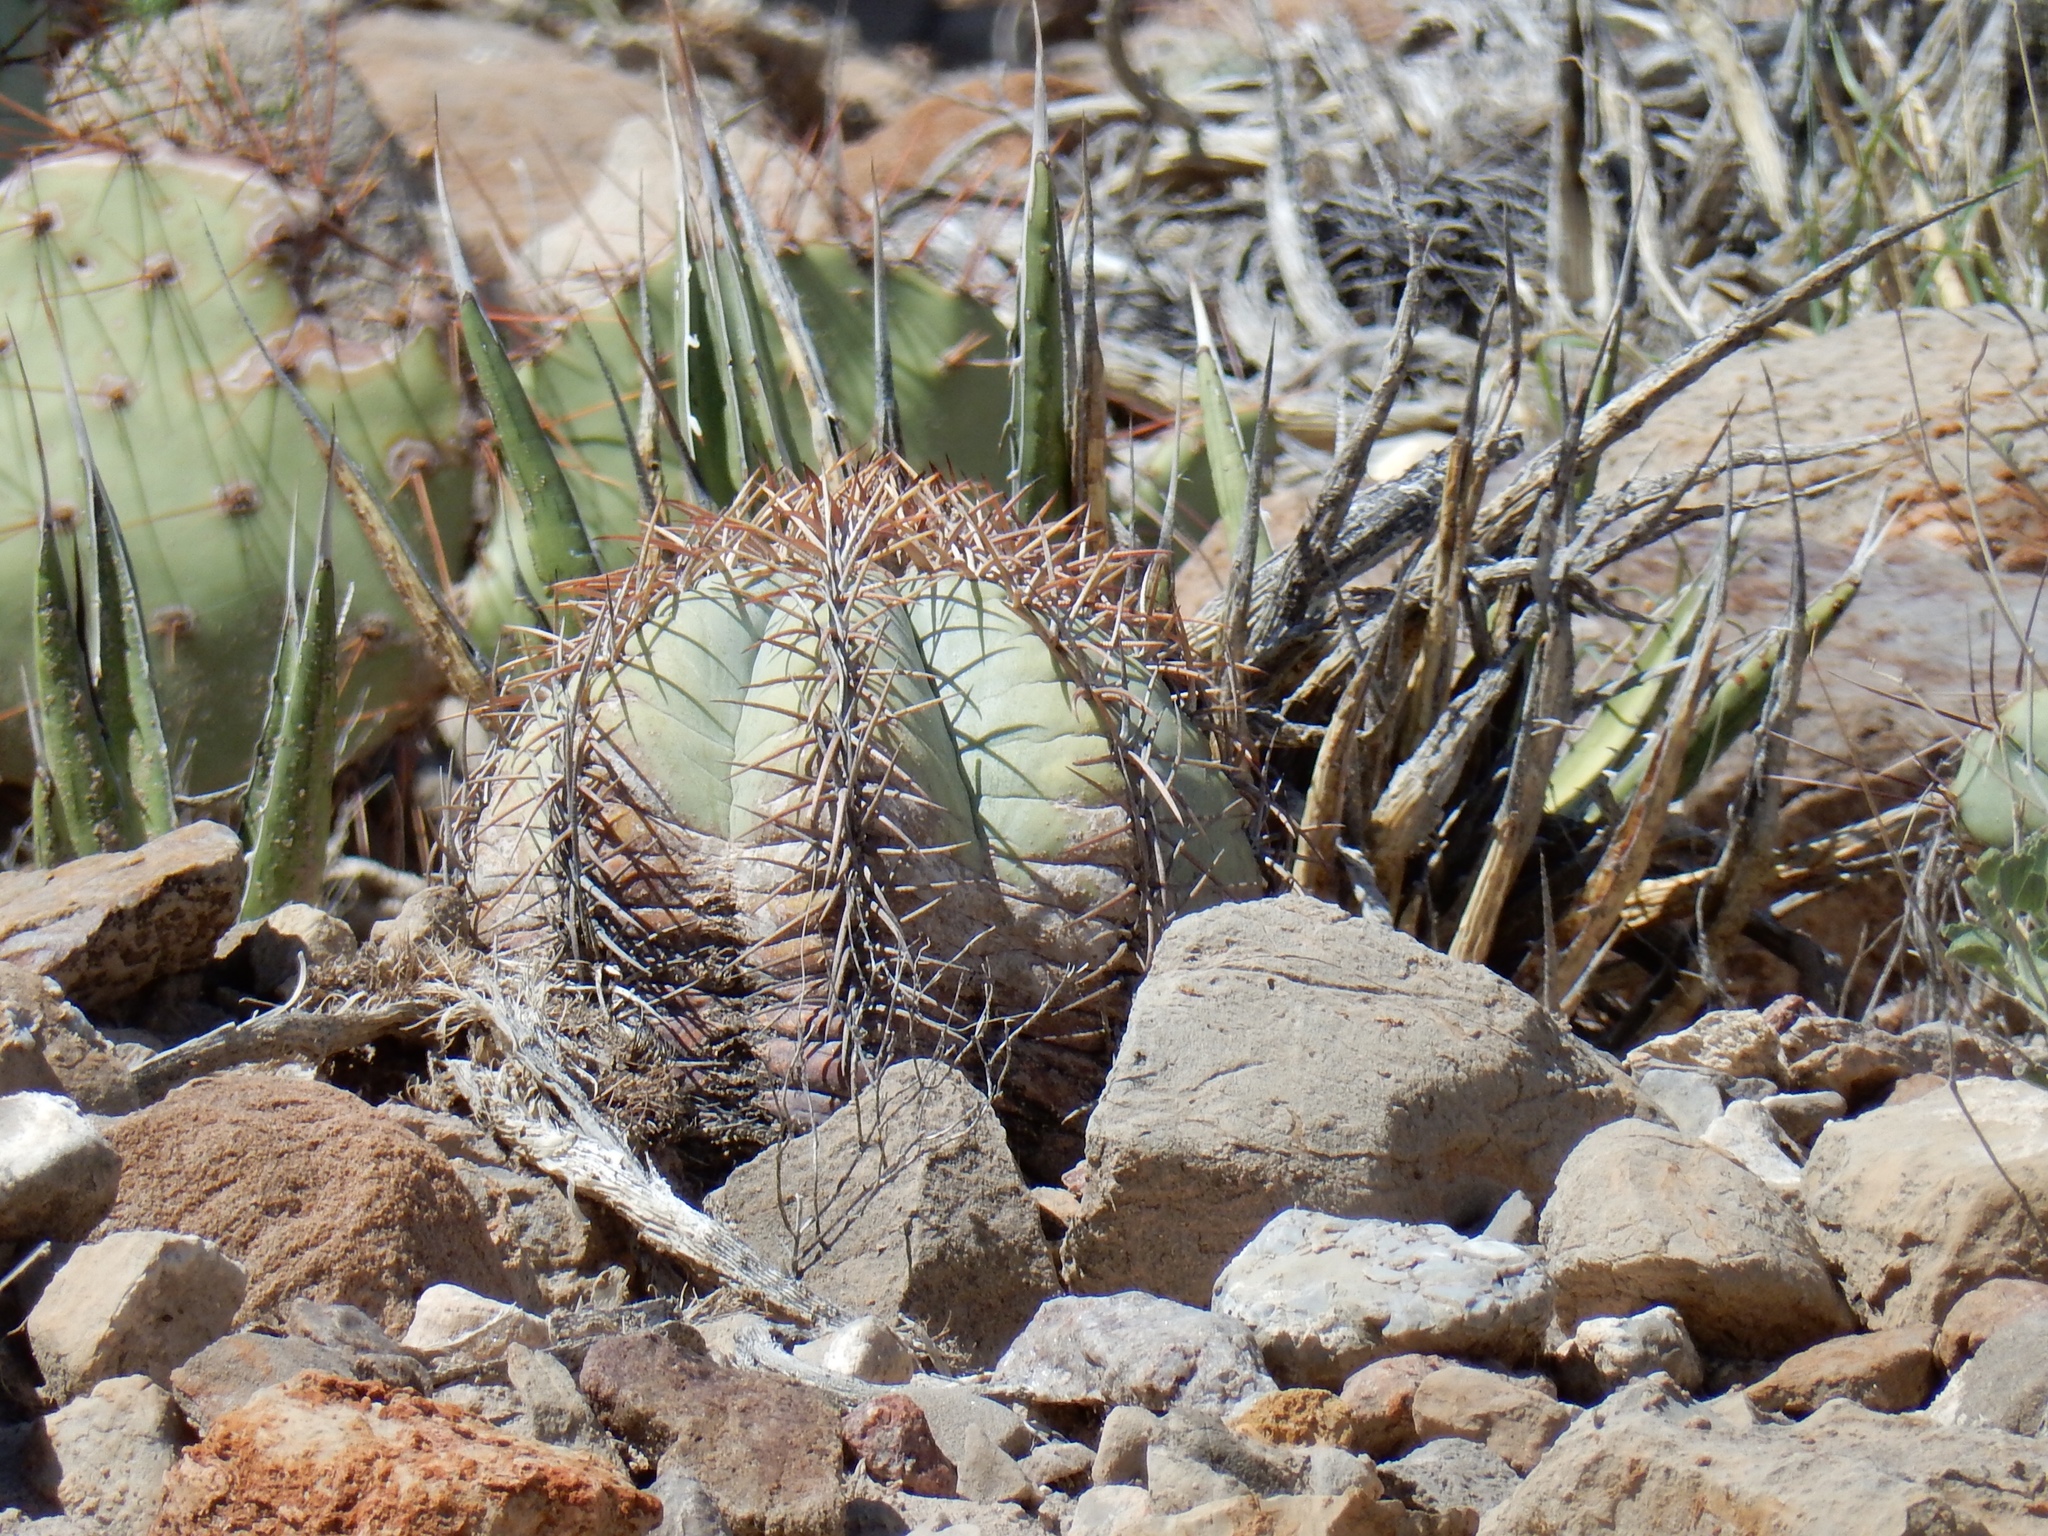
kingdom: Plantae
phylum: Tracheophyta
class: Magnoliopsida
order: Caryophyllales
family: Cactaceae
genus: Echinocactus
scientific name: Echinocactus horizonthalonius
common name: Devilshead
